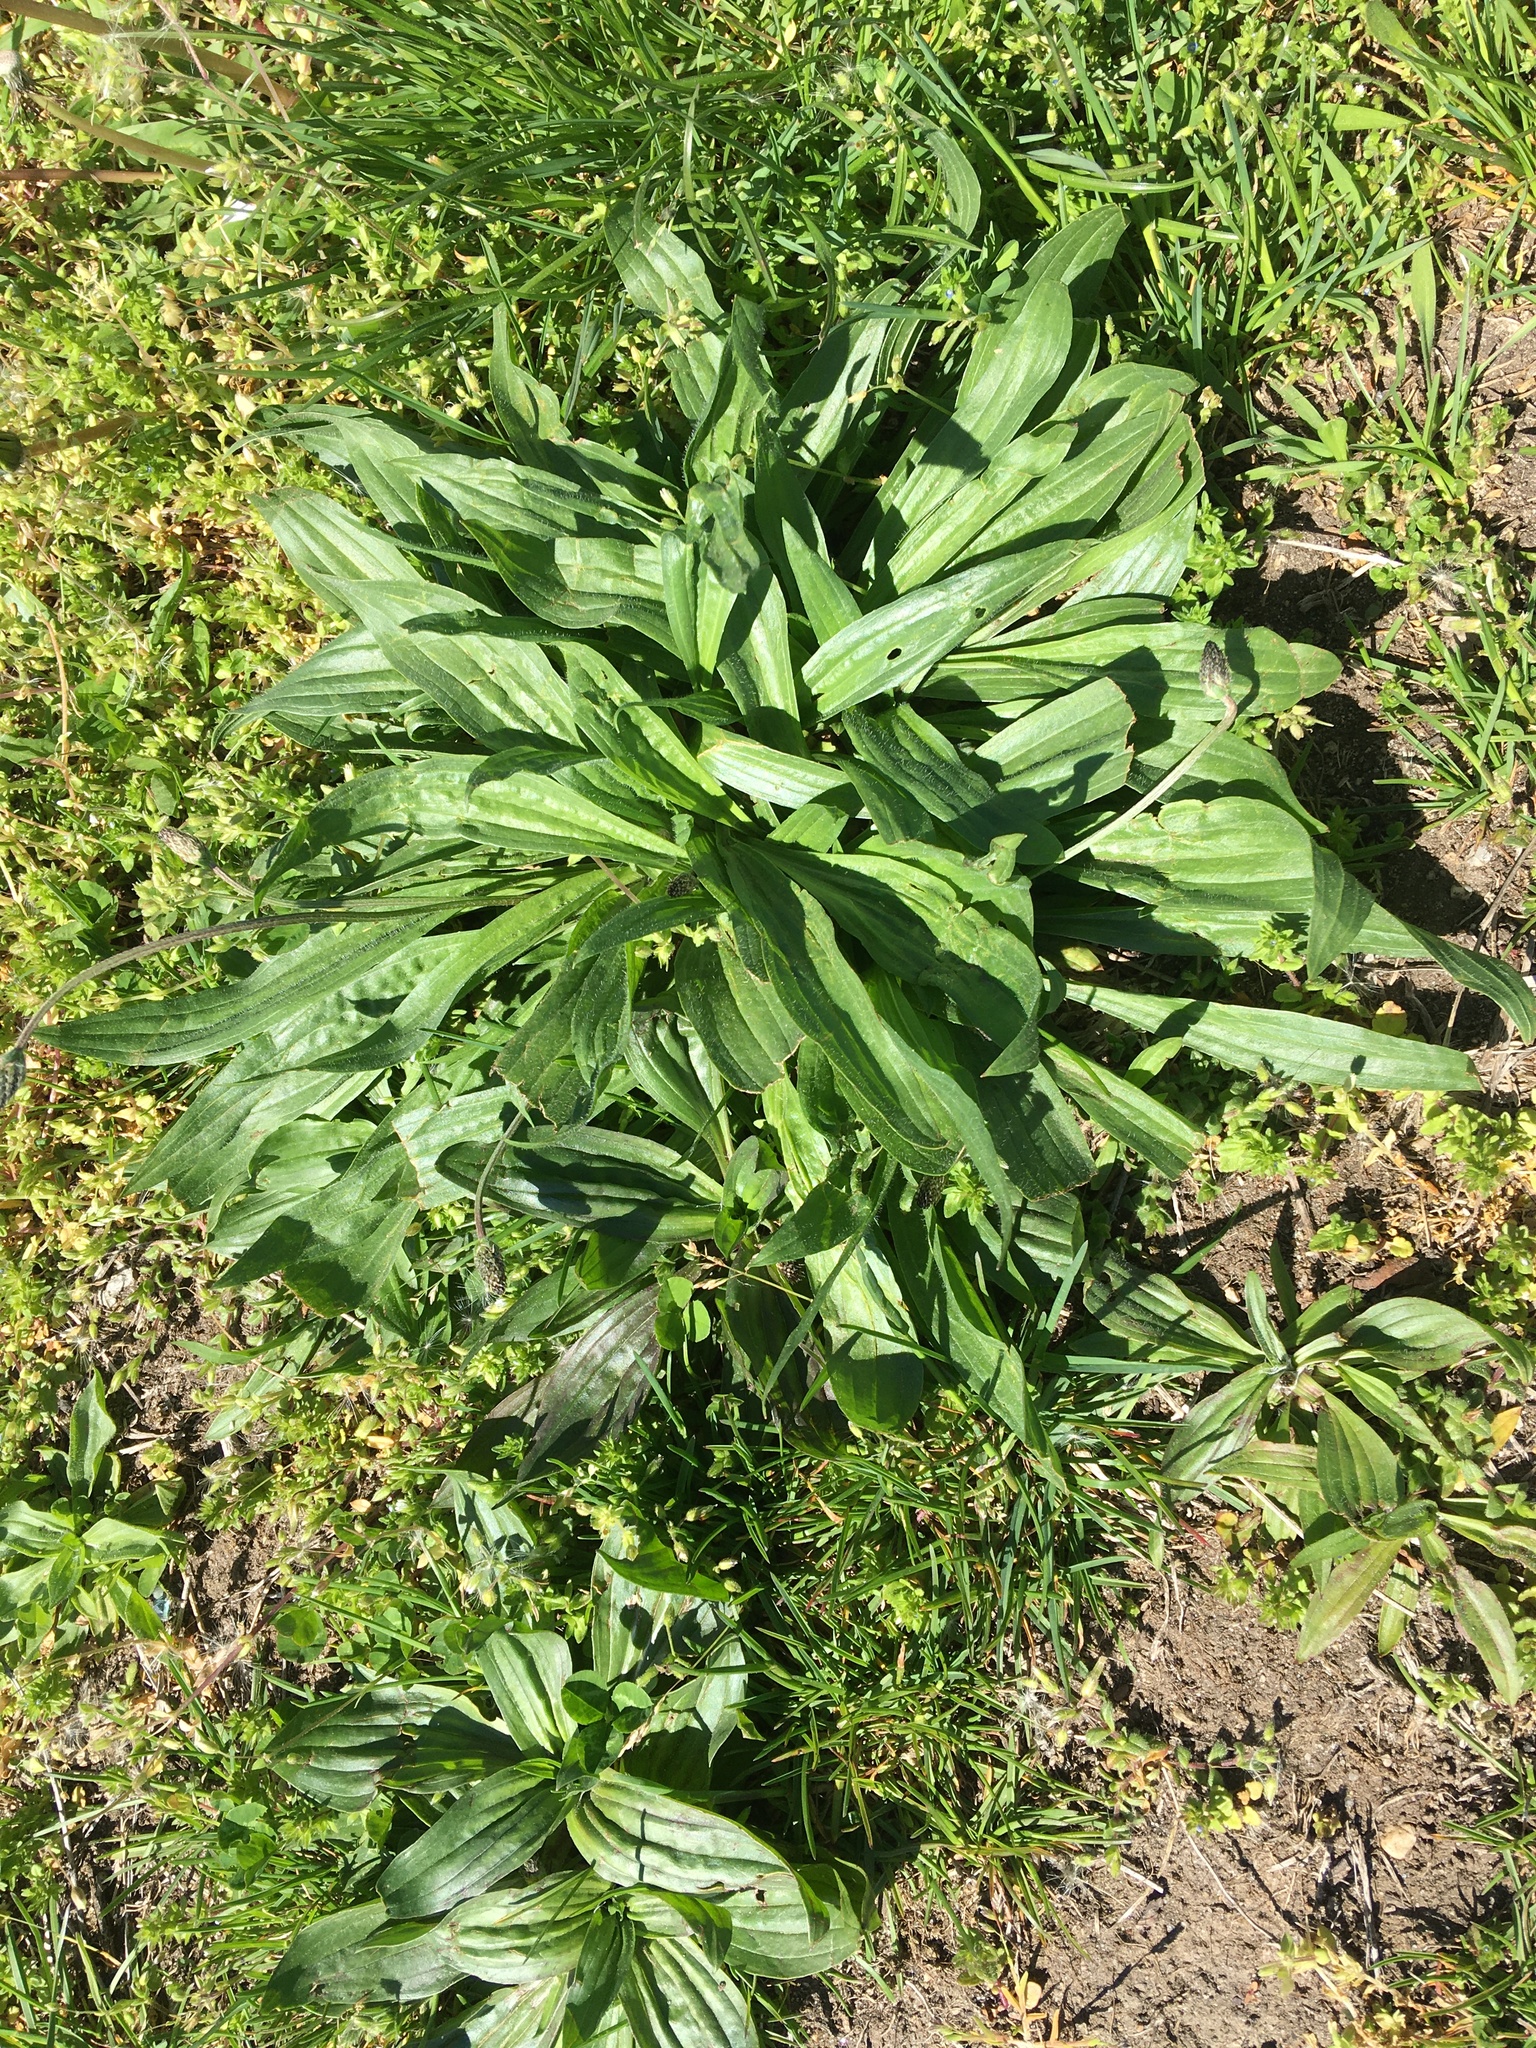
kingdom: Plantae
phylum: Tracheophyta
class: Magnoliopsida
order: Lamiales
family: Plantaginaceae
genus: Plantago
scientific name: Plantago lanceolata
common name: Ribwort plantain
